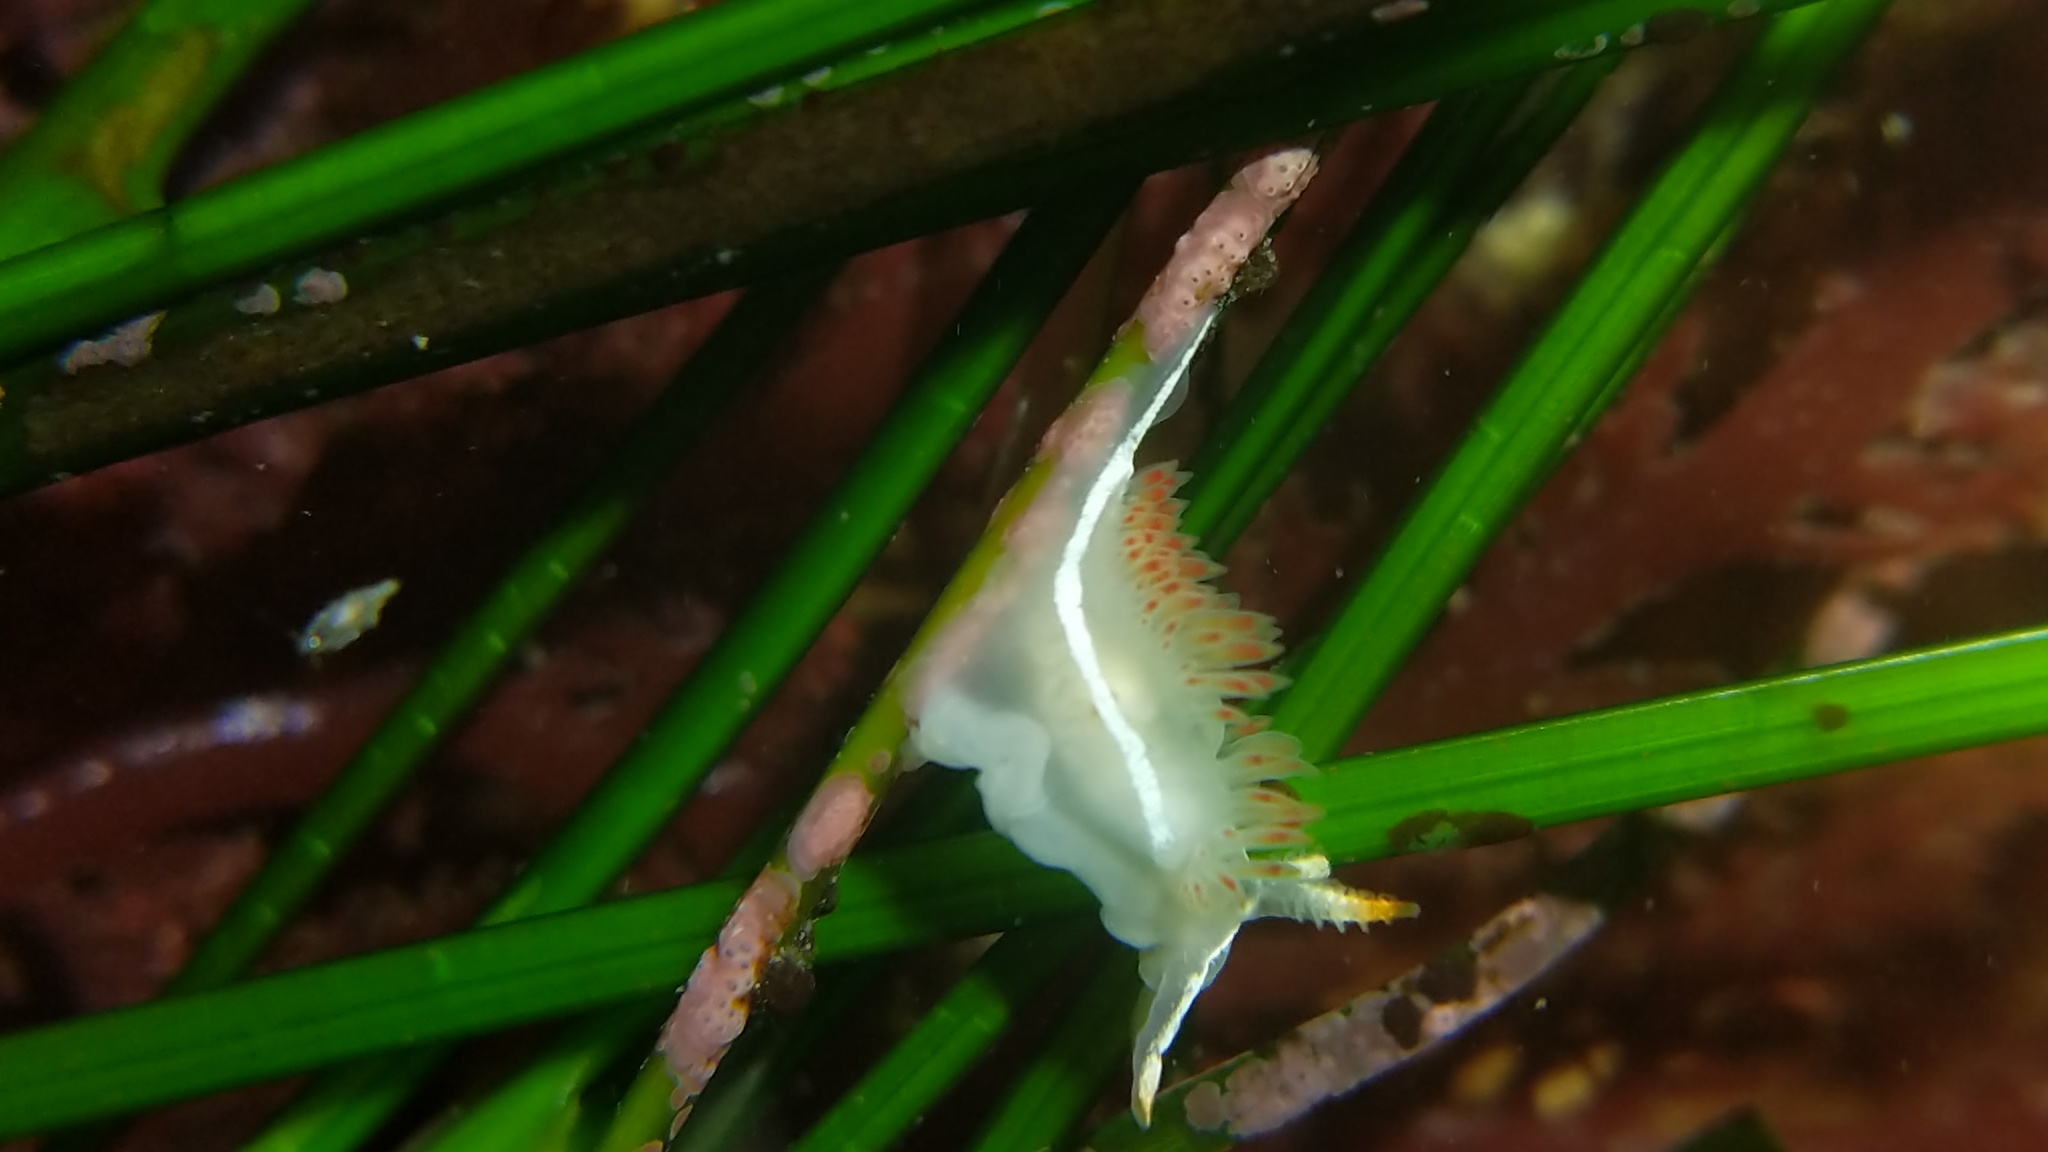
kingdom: Animalia
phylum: Mollusca
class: Gastropoda
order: Nudibranchia
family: Coryphellidae
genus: Coryphella
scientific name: Coryphella trilineata
